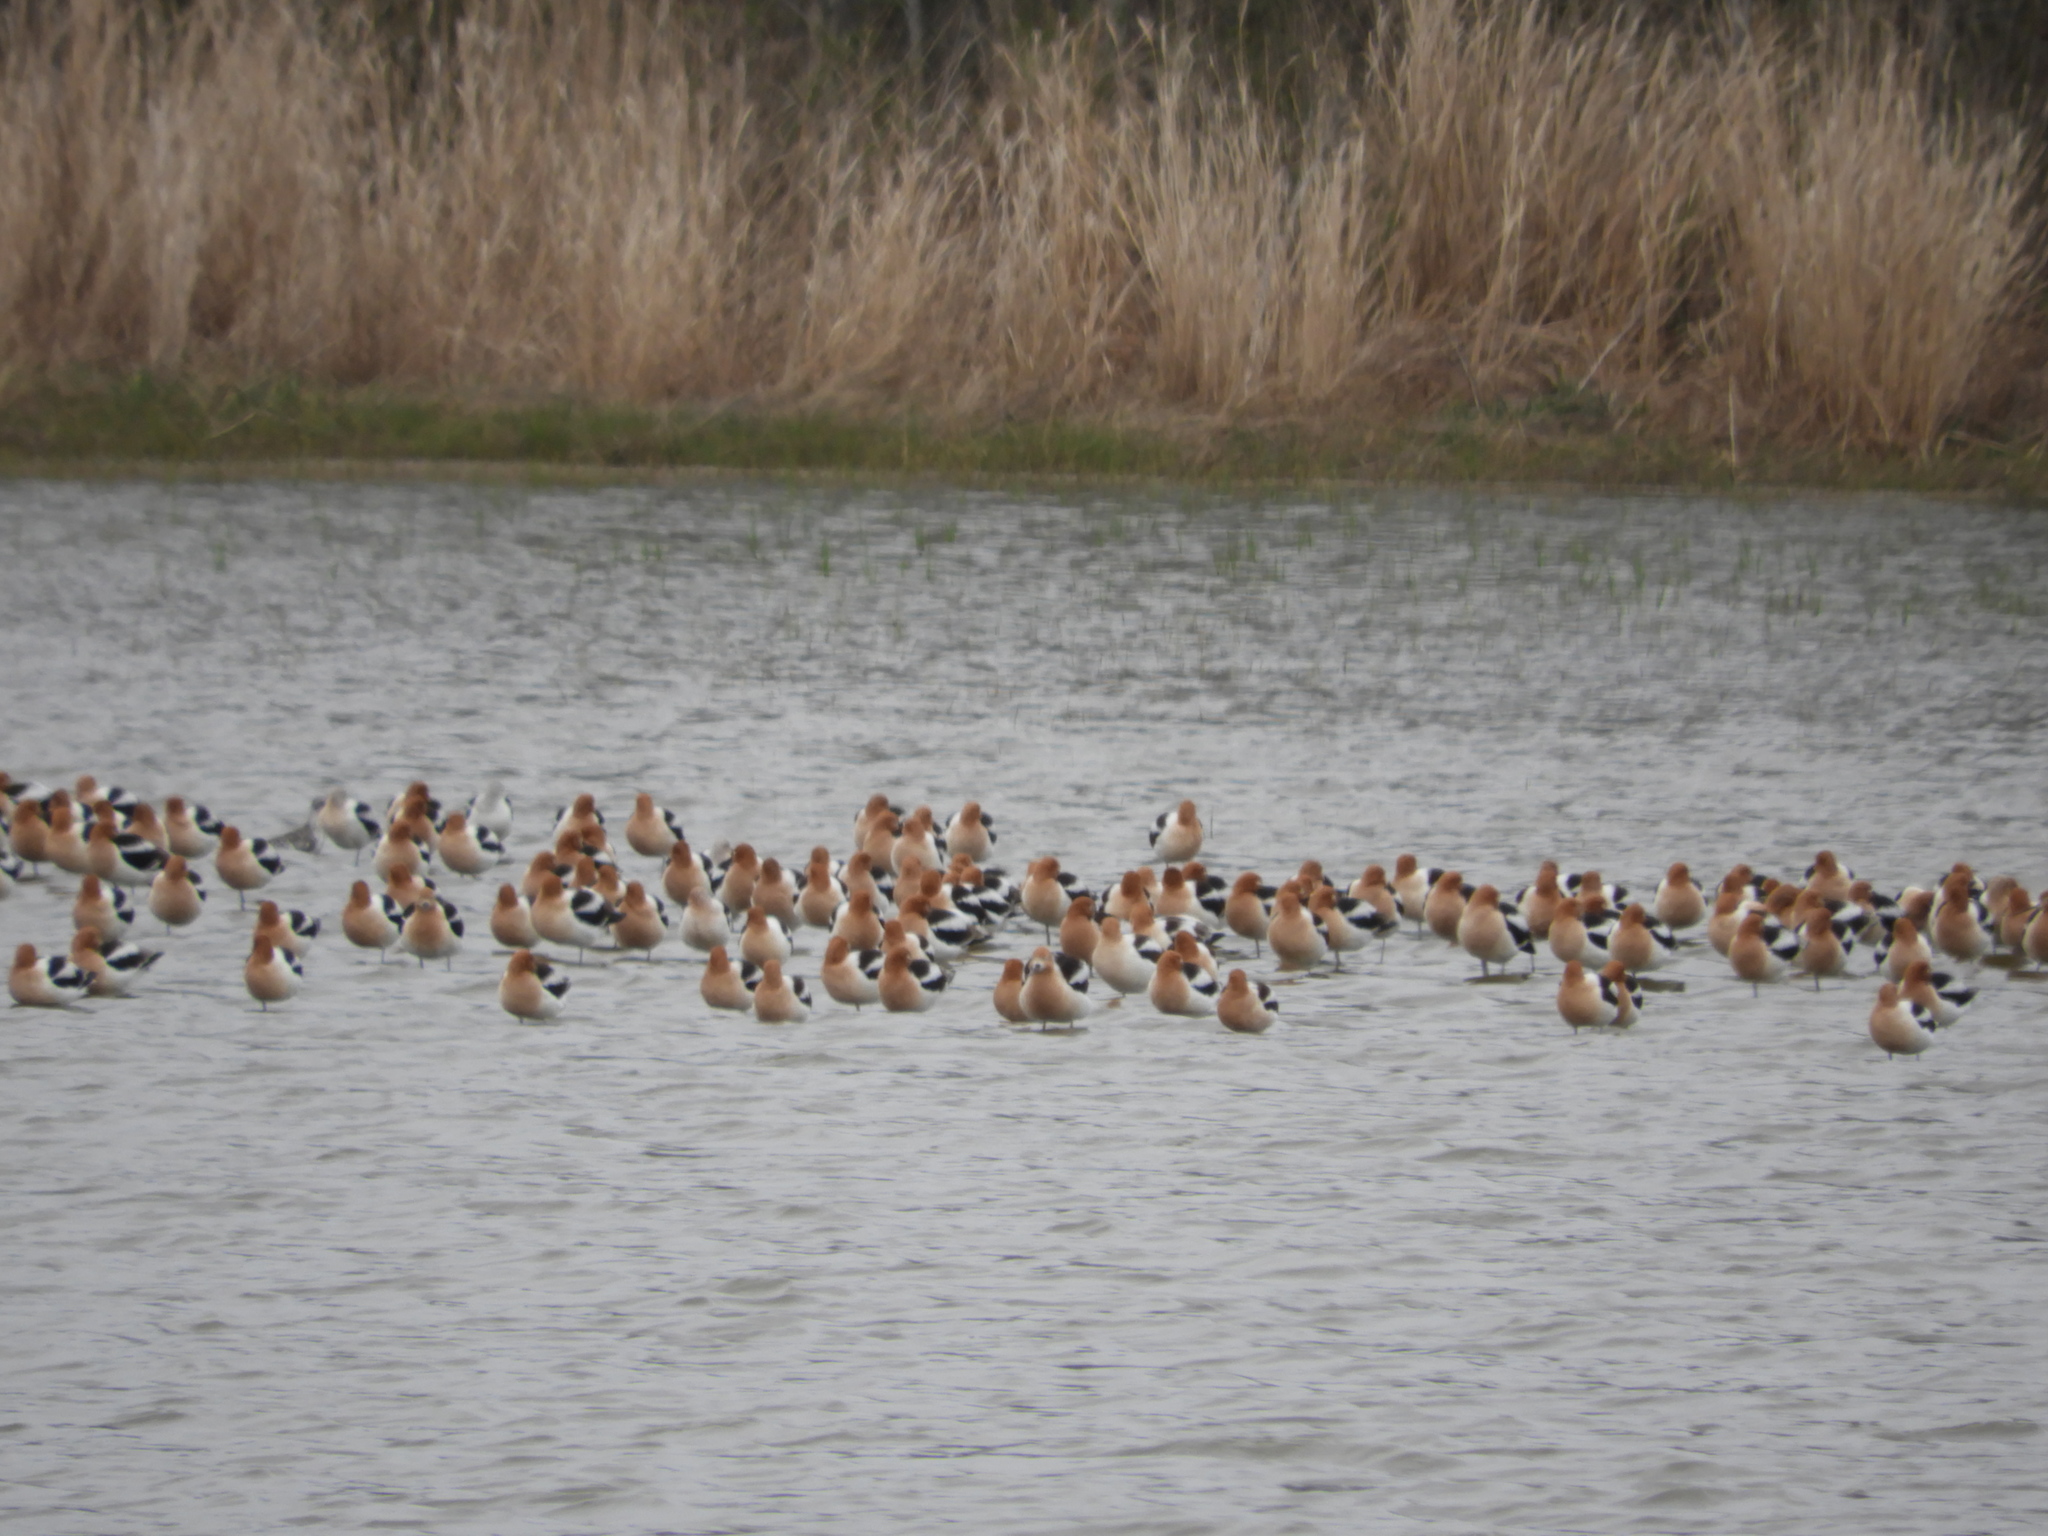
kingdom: Animalia
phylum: Chordata
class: Aves
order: Charadriiformes
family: Recurvirostridae
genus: Recurvirostra
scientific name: Recurvirostra americana
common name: American avocet
